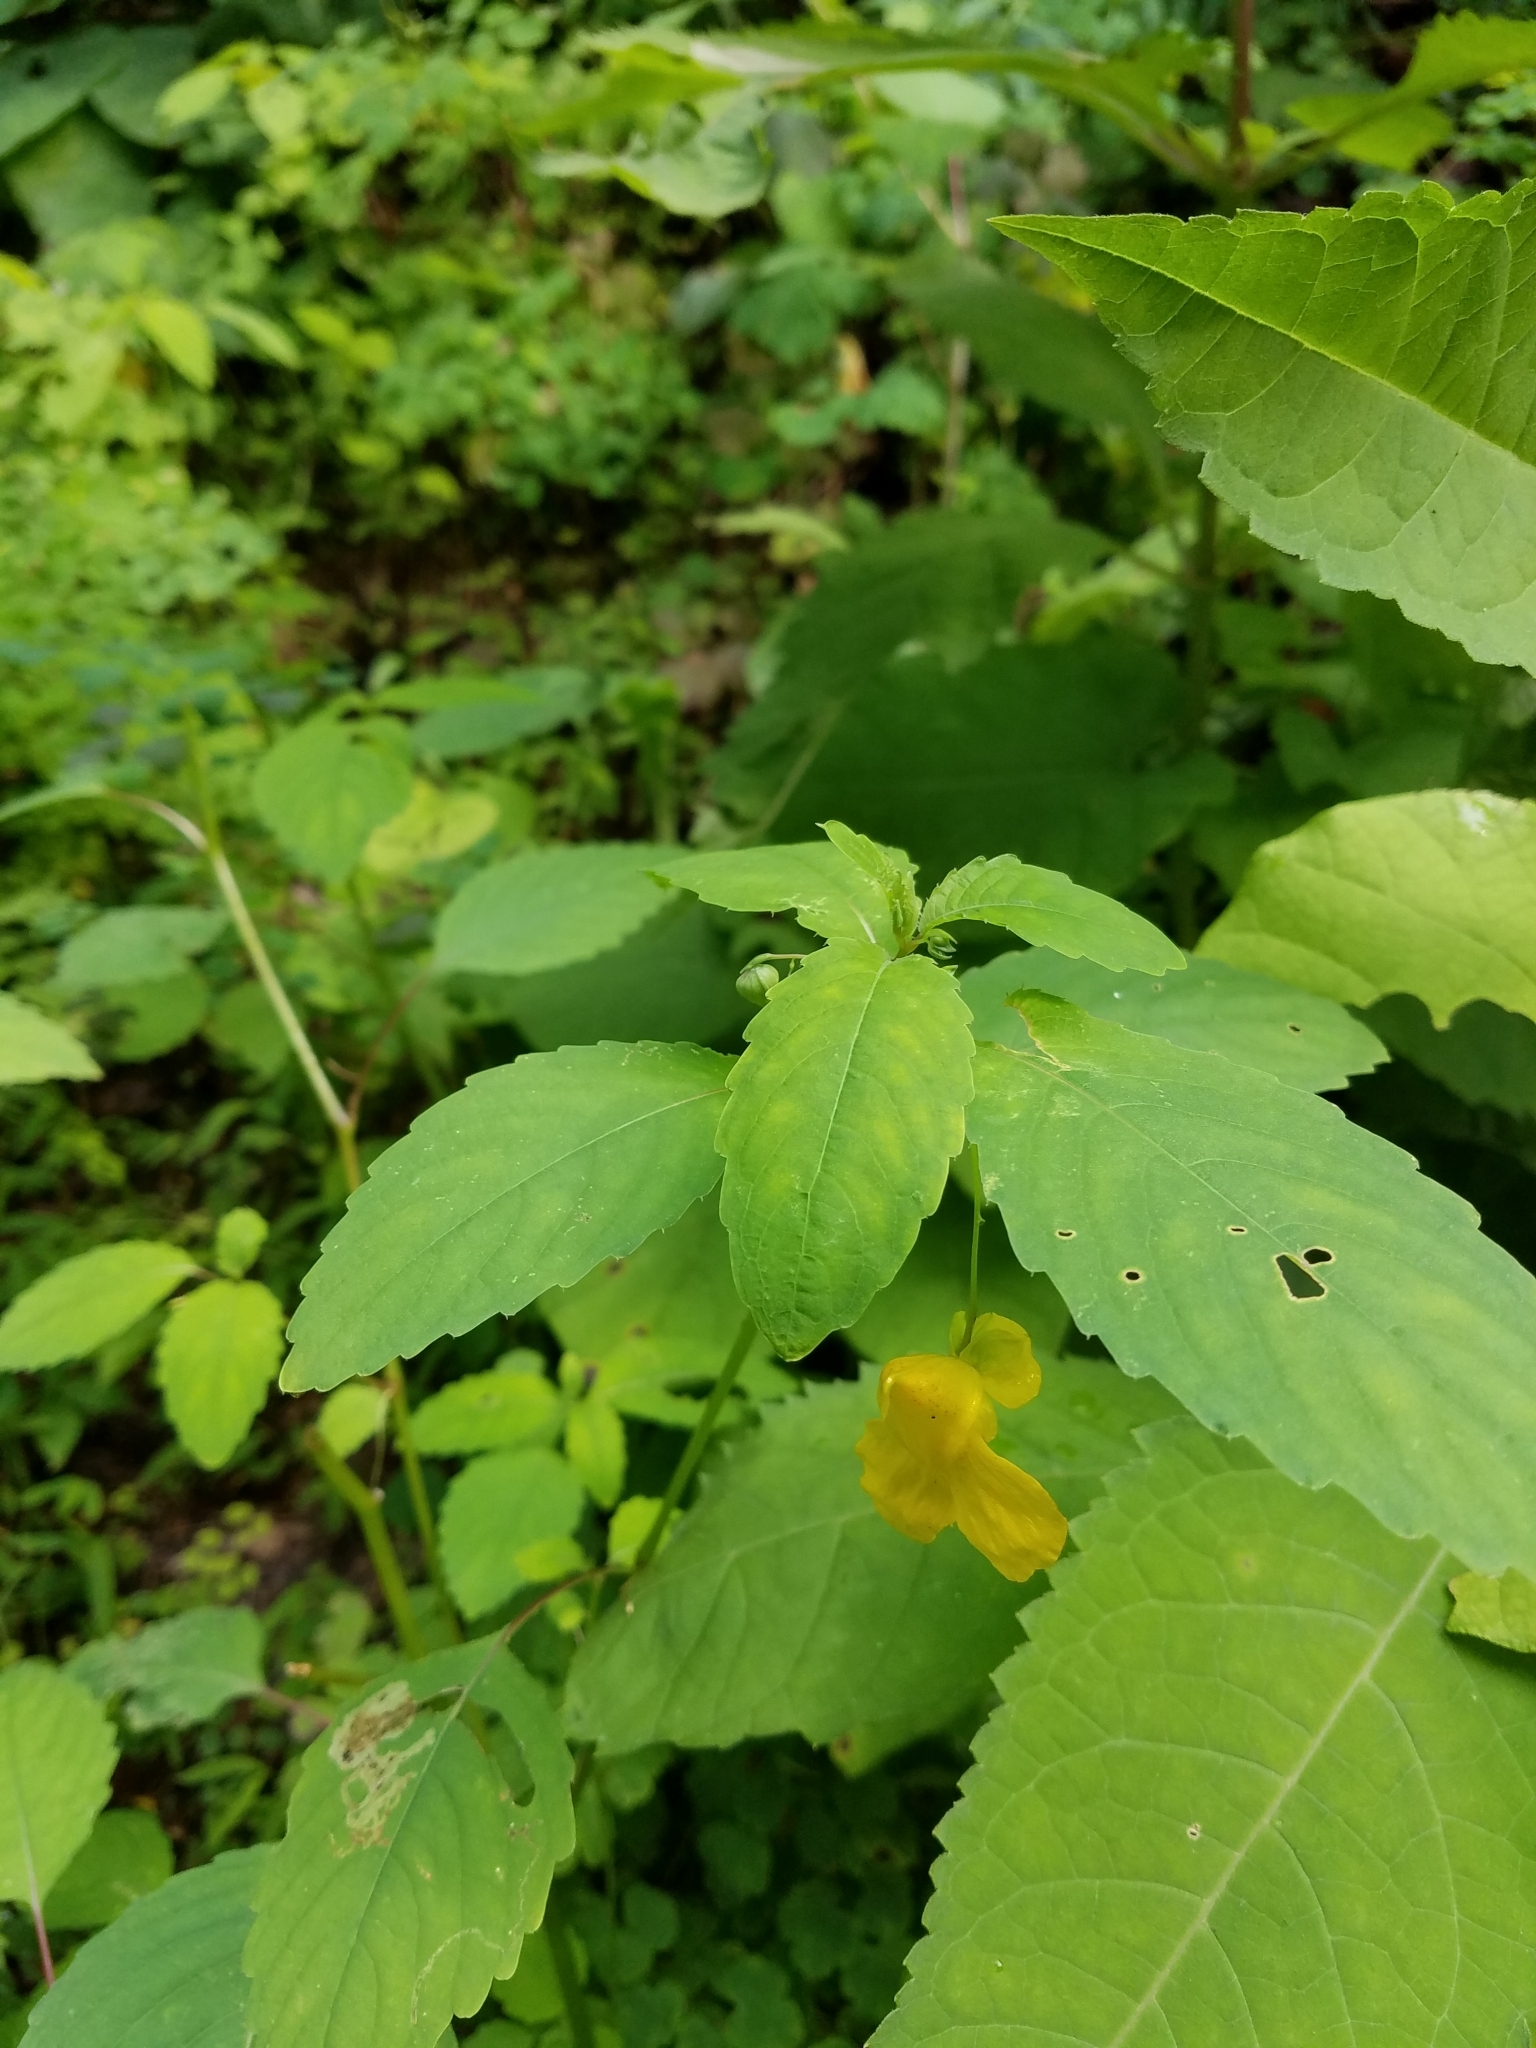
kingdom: Plantae
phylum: Tracheophyta
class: Magnoliopsida
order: Ericales
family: Balsaminaceae
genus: Impatiens
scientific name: Impatiens pallida
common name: Pale snapweed
